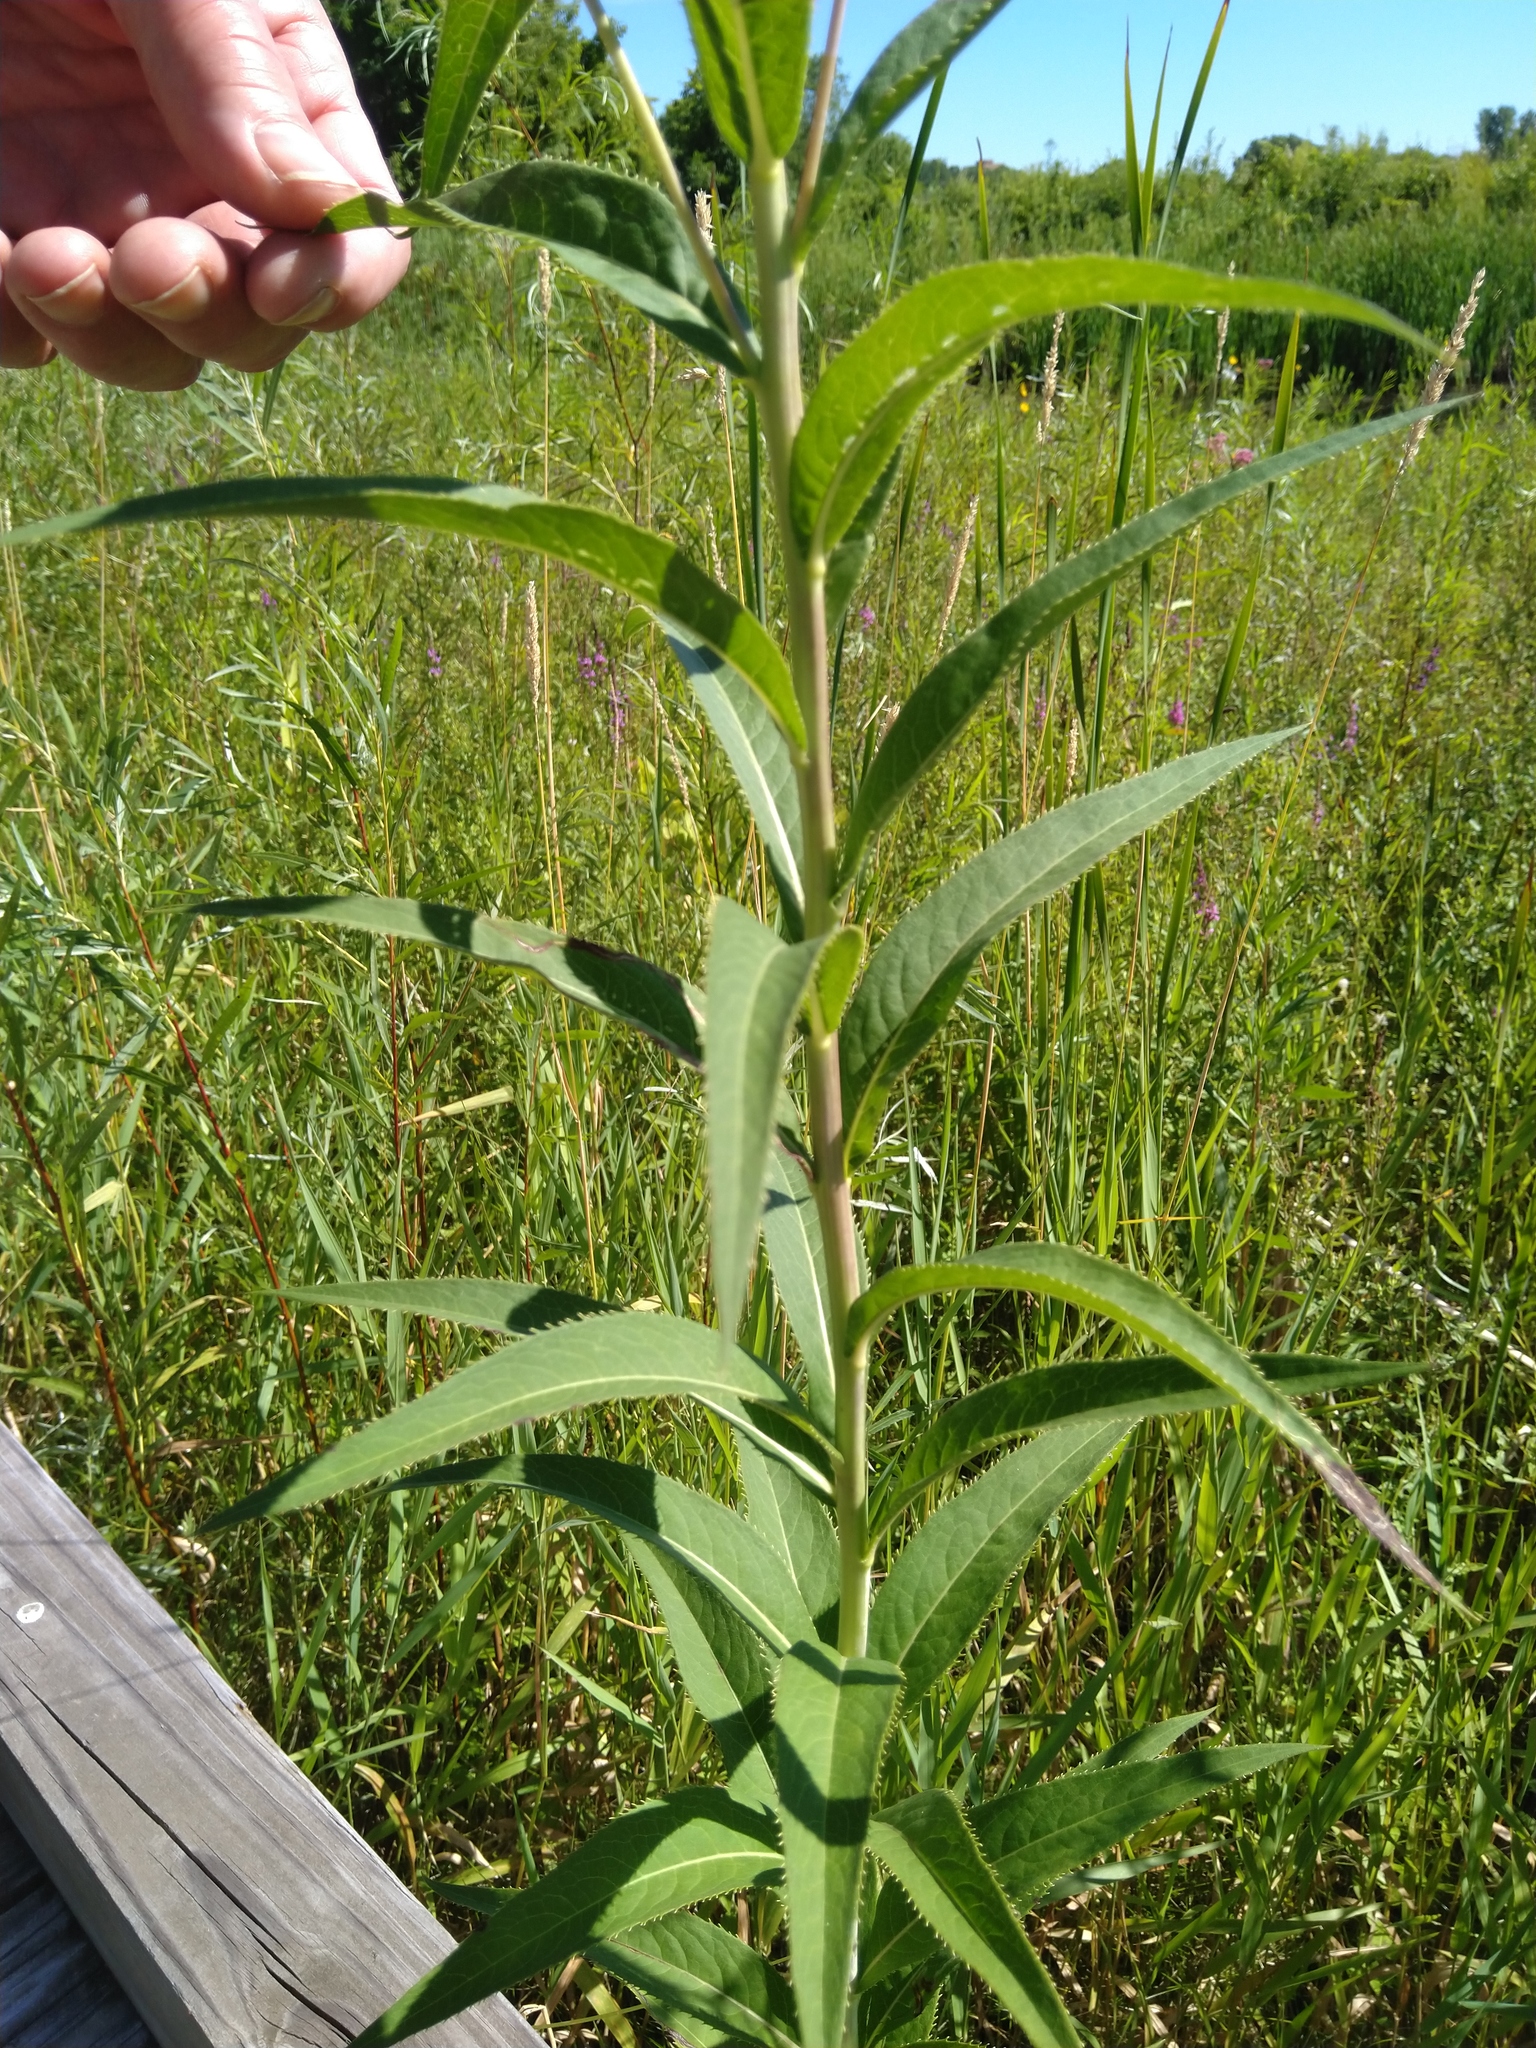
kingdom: Plantae
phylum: Tracheophyta
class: Magnoliopsida
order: Asterales
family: Asteraceae
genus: Vernonia
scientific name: Vernonia fasciculata
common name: Fascicled ironweed
